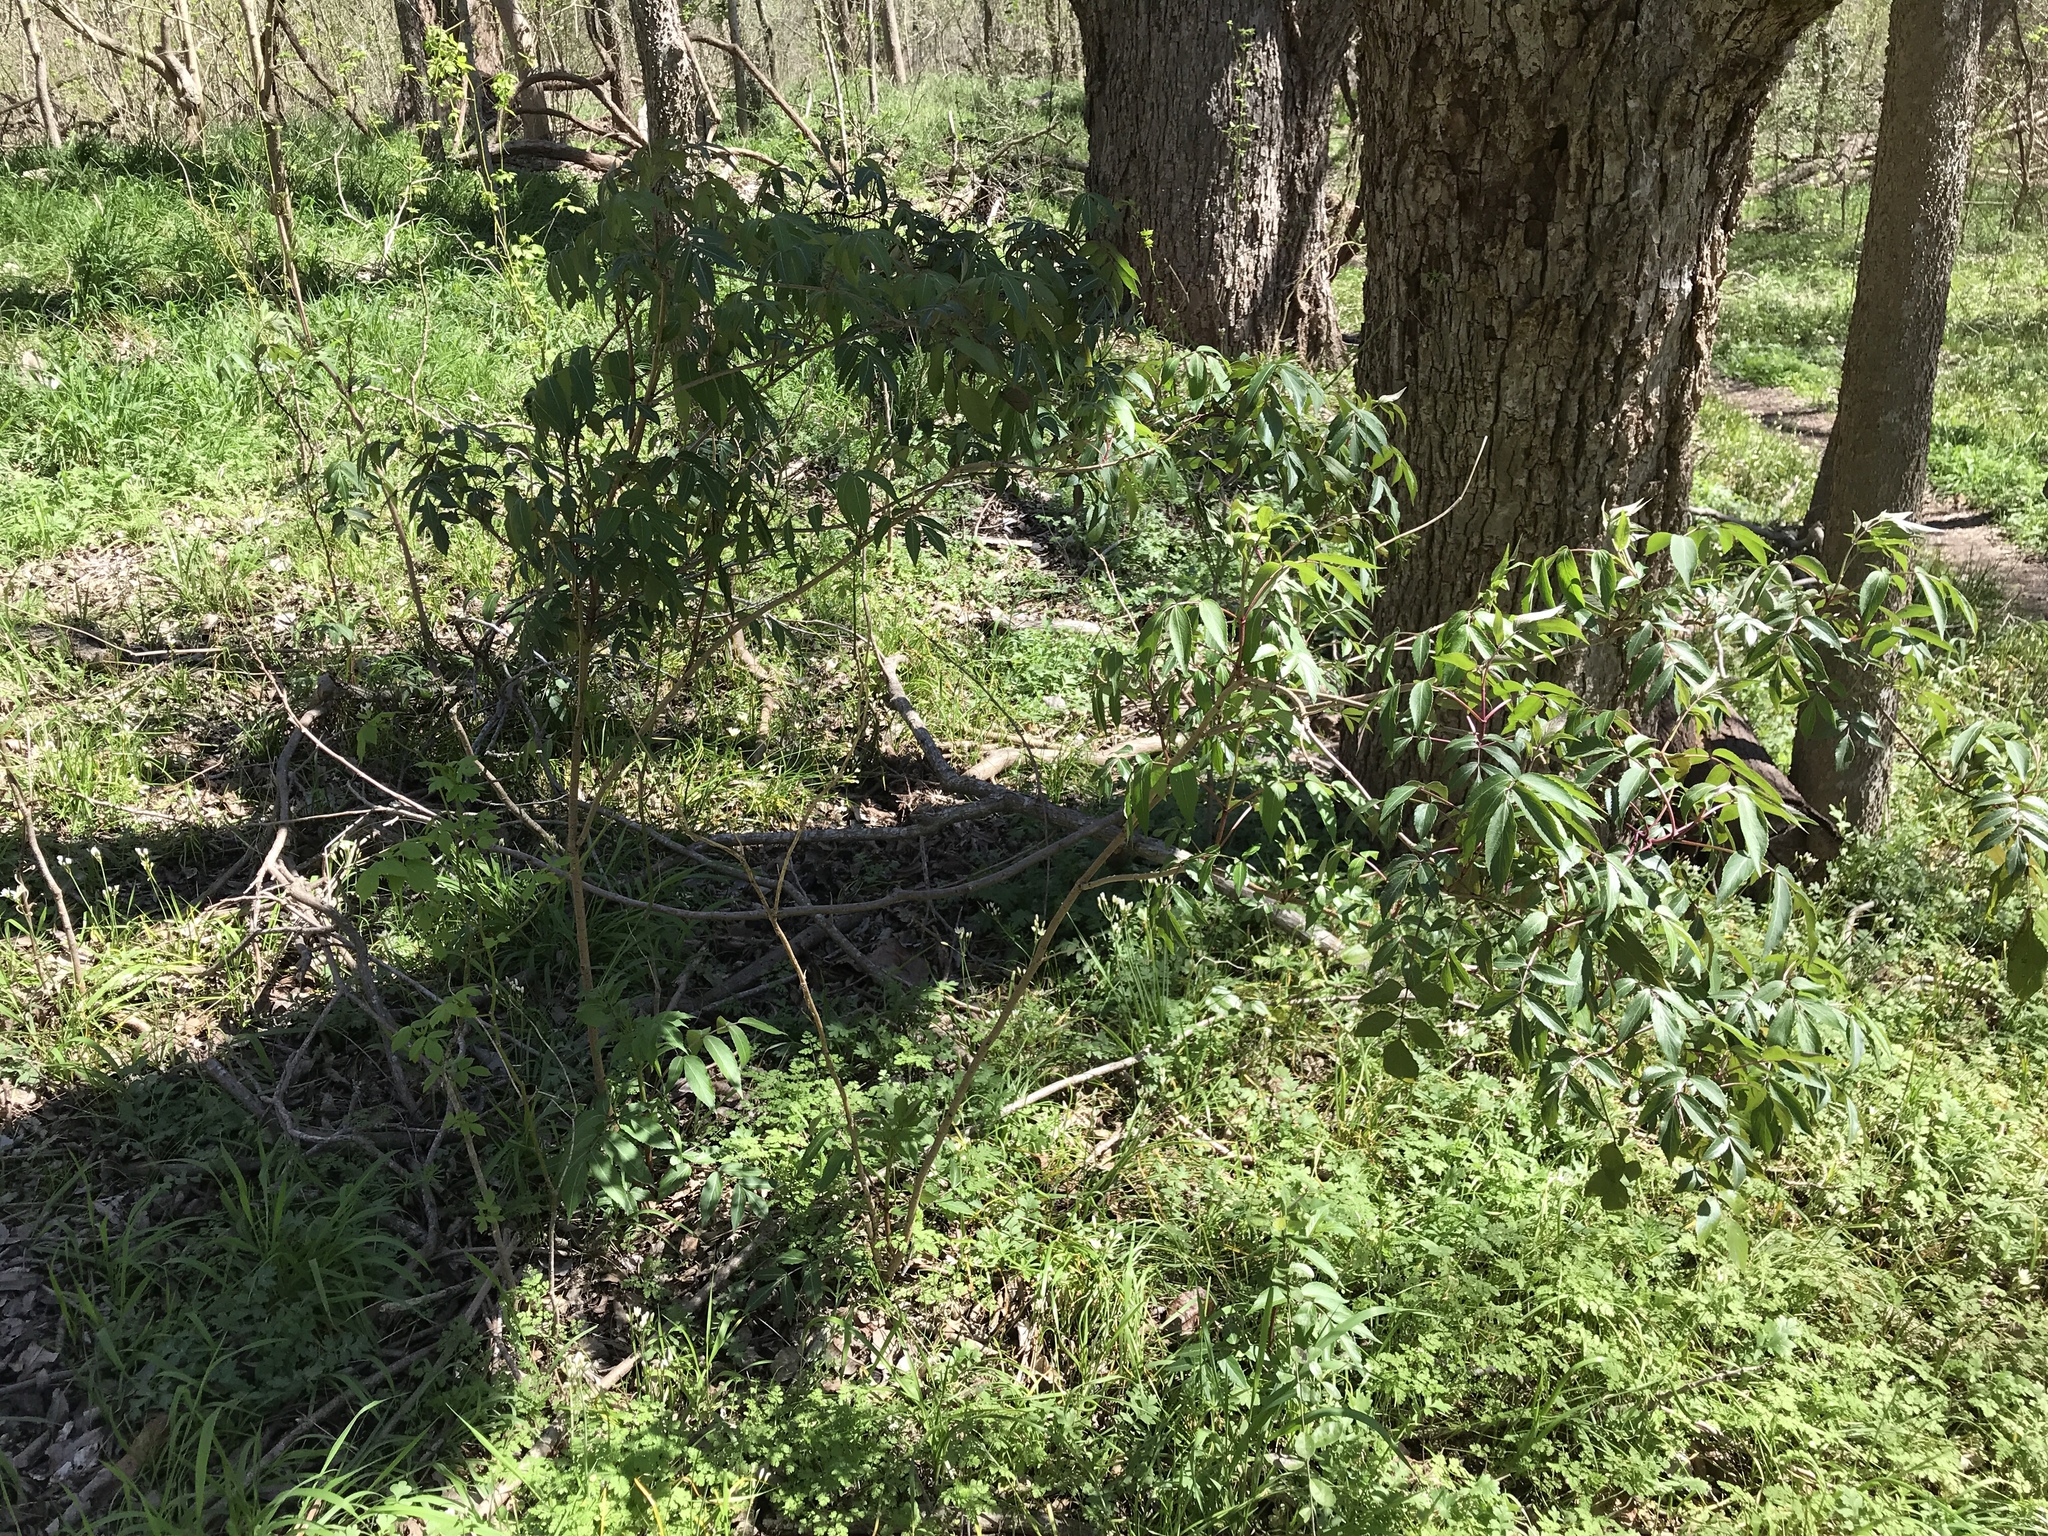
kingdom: Plantae
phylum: Tracheophyta
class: Magnoliopsida
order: Dipsacales
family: Viburnaceae
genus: Sambucus
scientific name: Sambucus canadensis
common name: American elder
